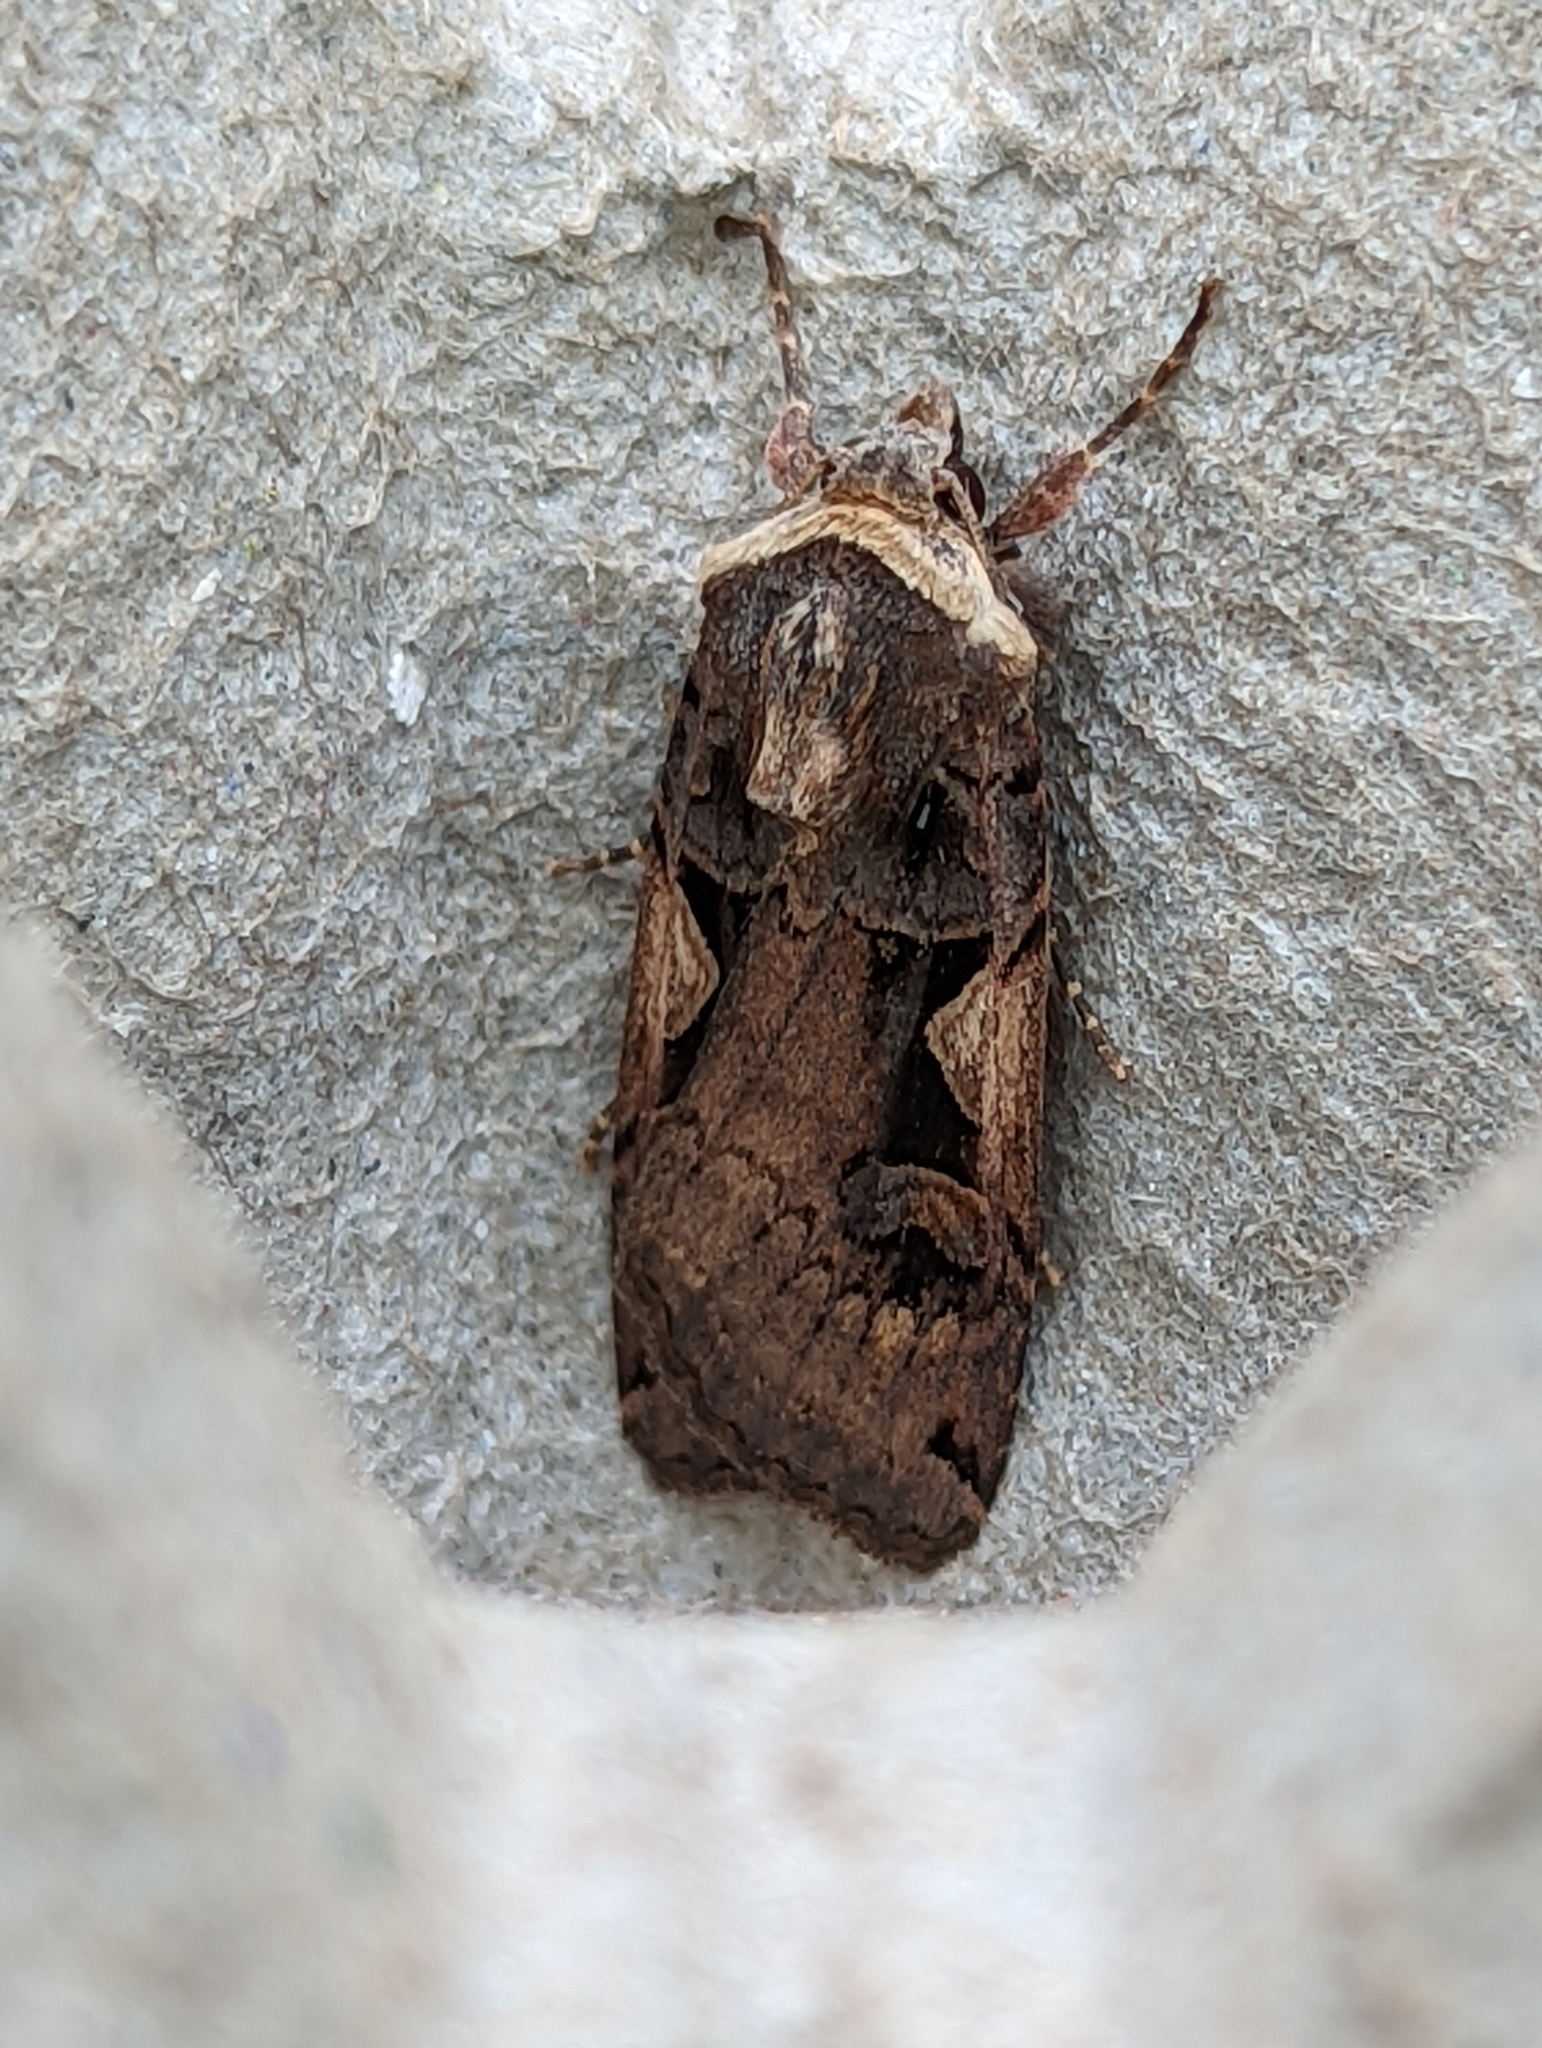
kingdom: Animalia
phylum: Arthropoda
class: Insecta
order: Lepidoptera
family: Noctuidae
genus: Xestia
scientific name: Xestia c-nigrum
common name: Setaceous hebrew character
